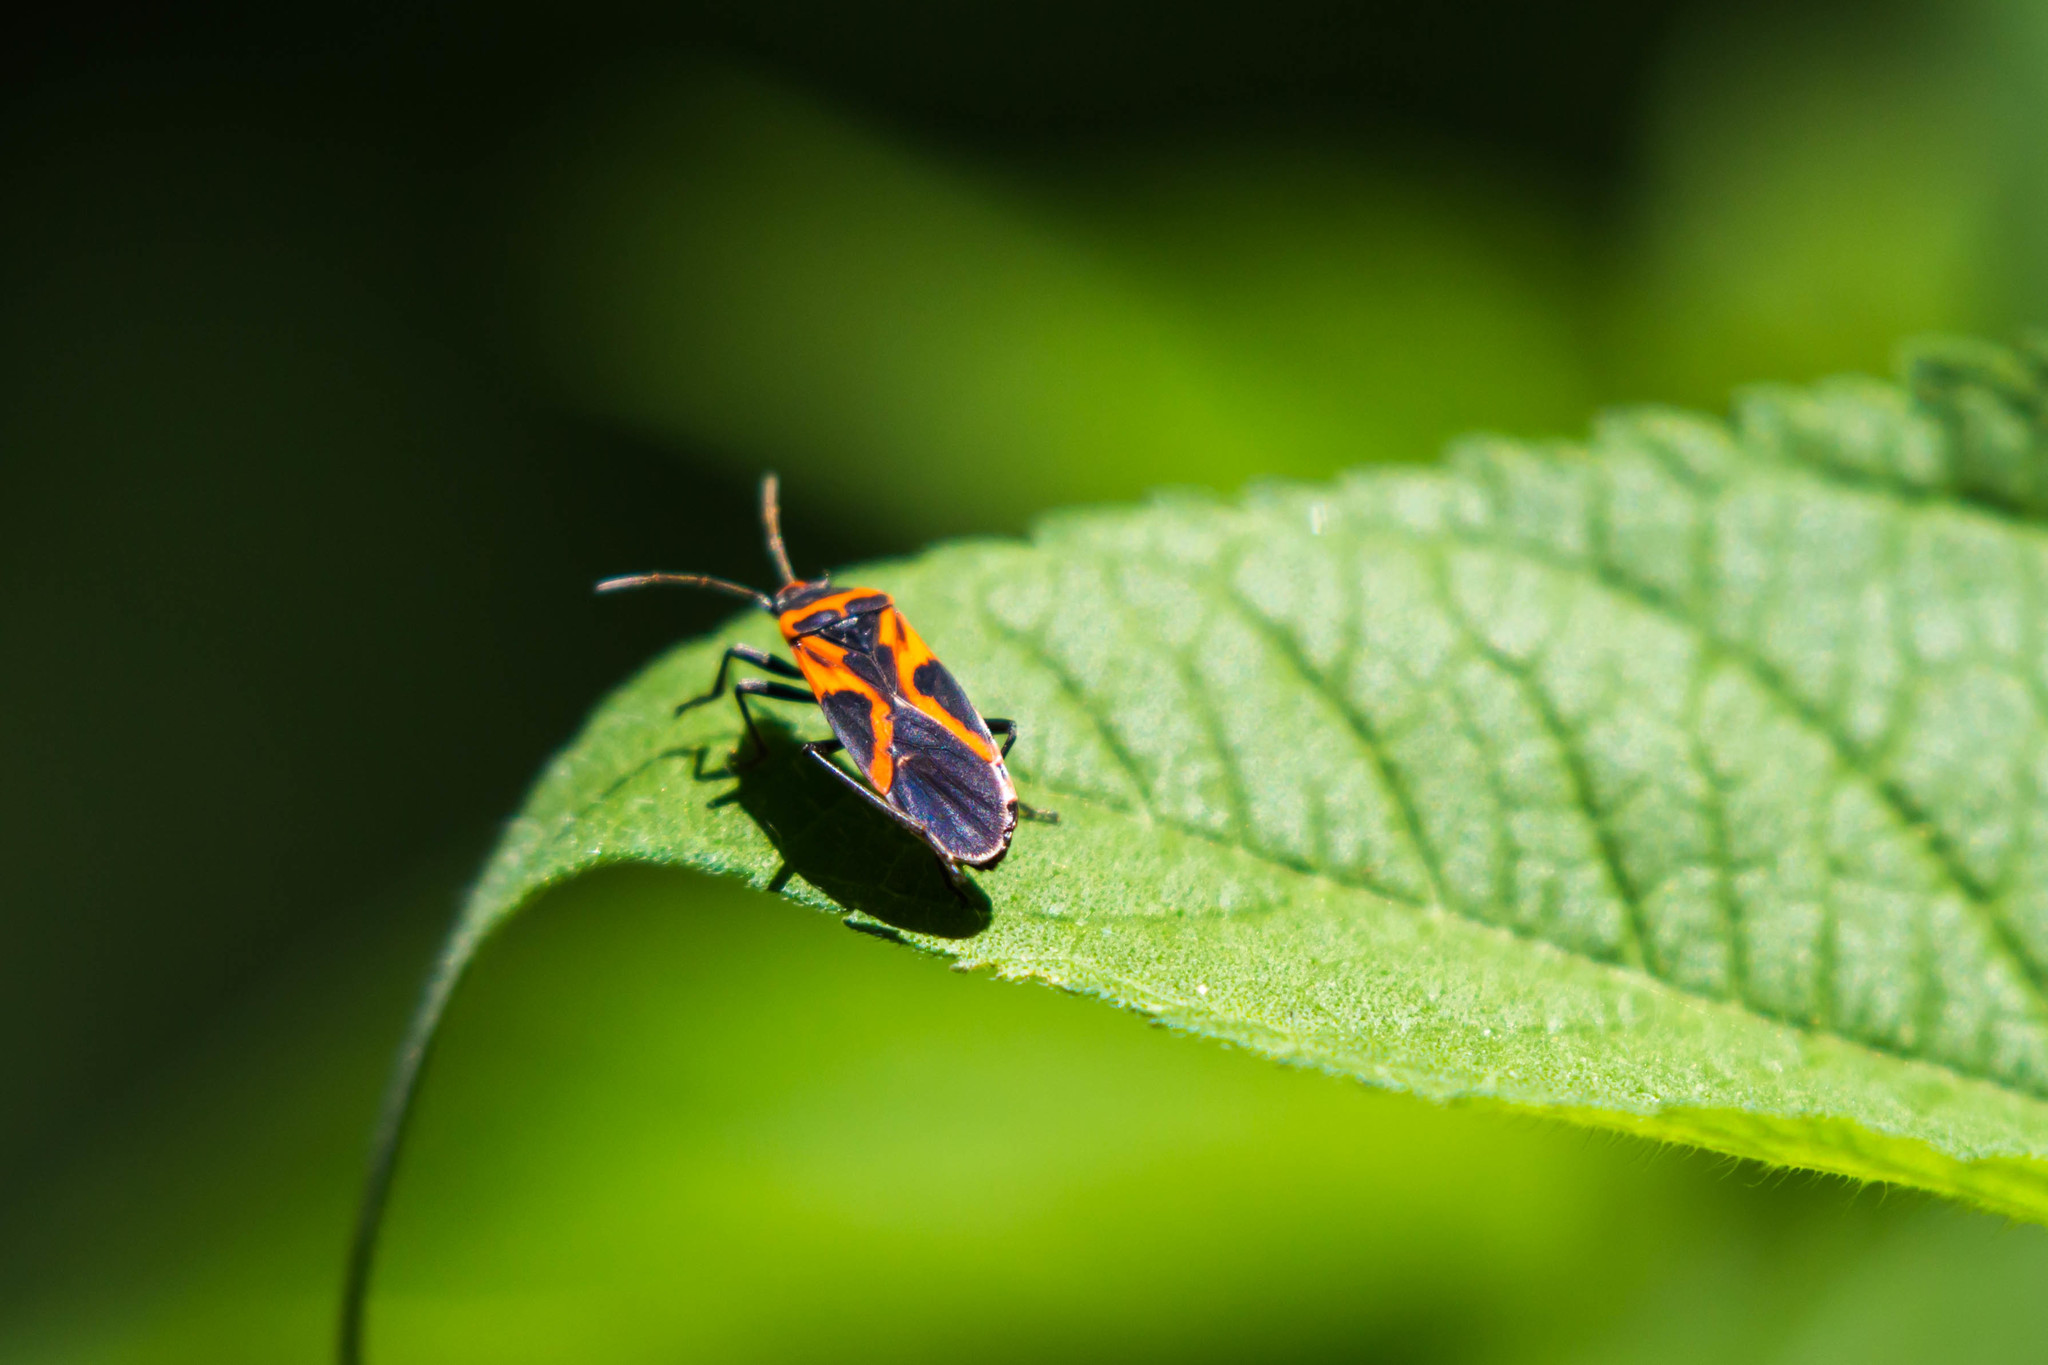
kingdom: Animalia
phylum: Arthropoda
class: Insecta
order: Hemiptera
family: Lygaeidae
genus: Lygaeus
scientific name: Lygaeus turcicus
